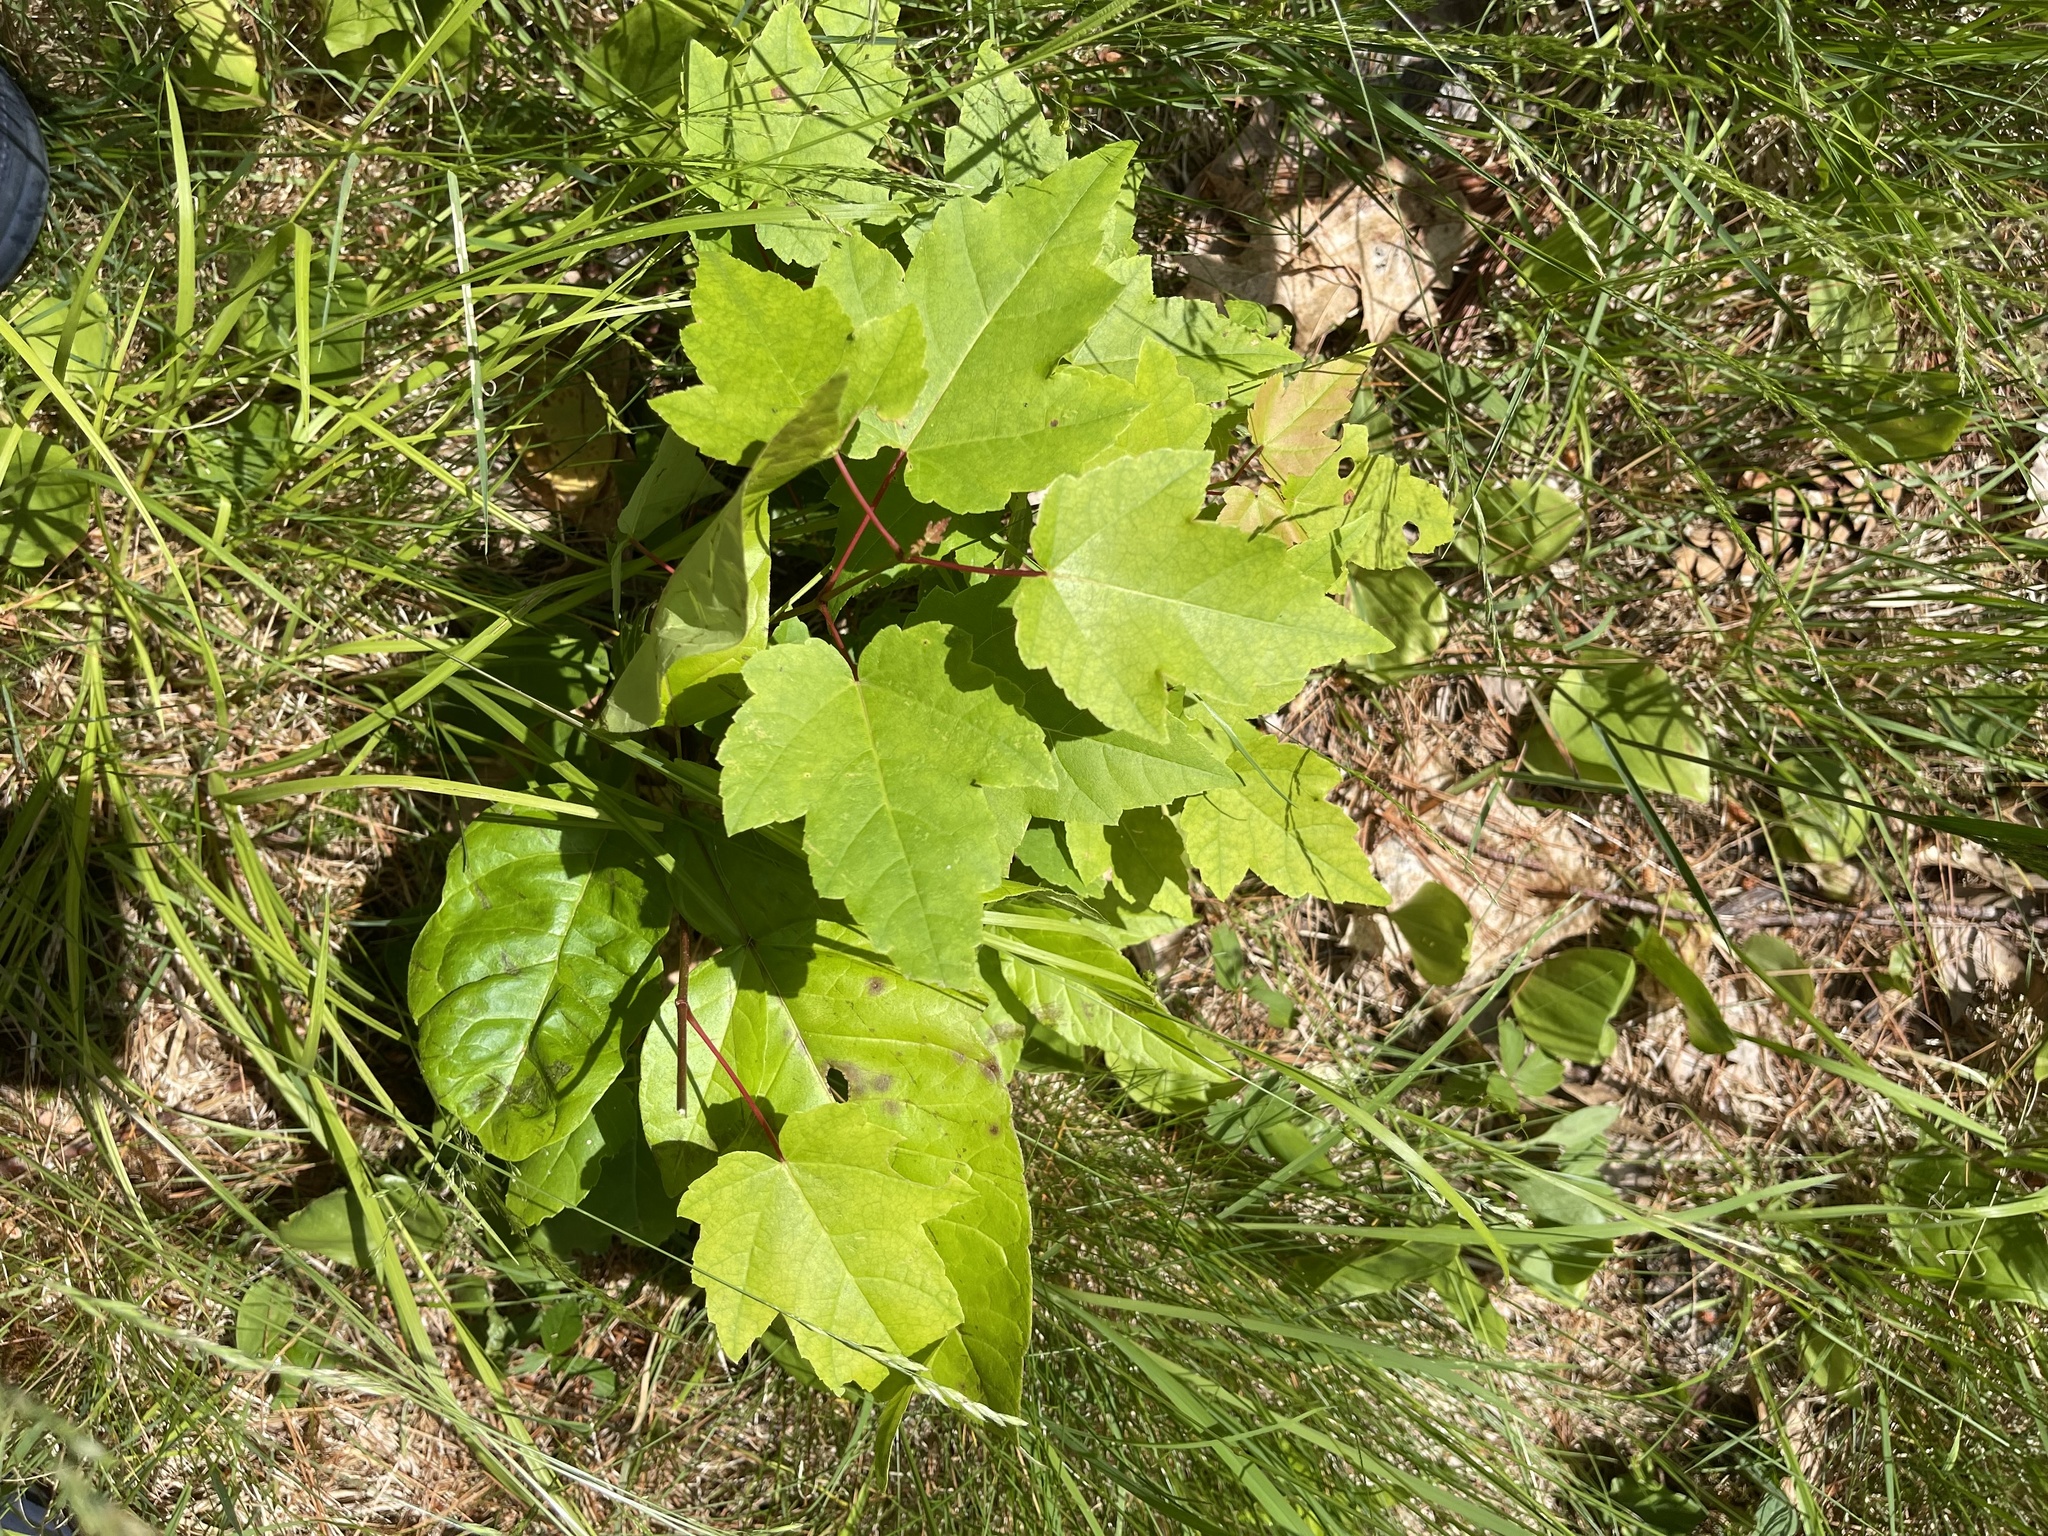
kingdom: Plantae
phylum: Tracheophyta
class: Magnoliopsida
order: Sapindales
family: Sapindaceae
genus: Acer
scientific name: Acer rubrum
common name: Red maple
